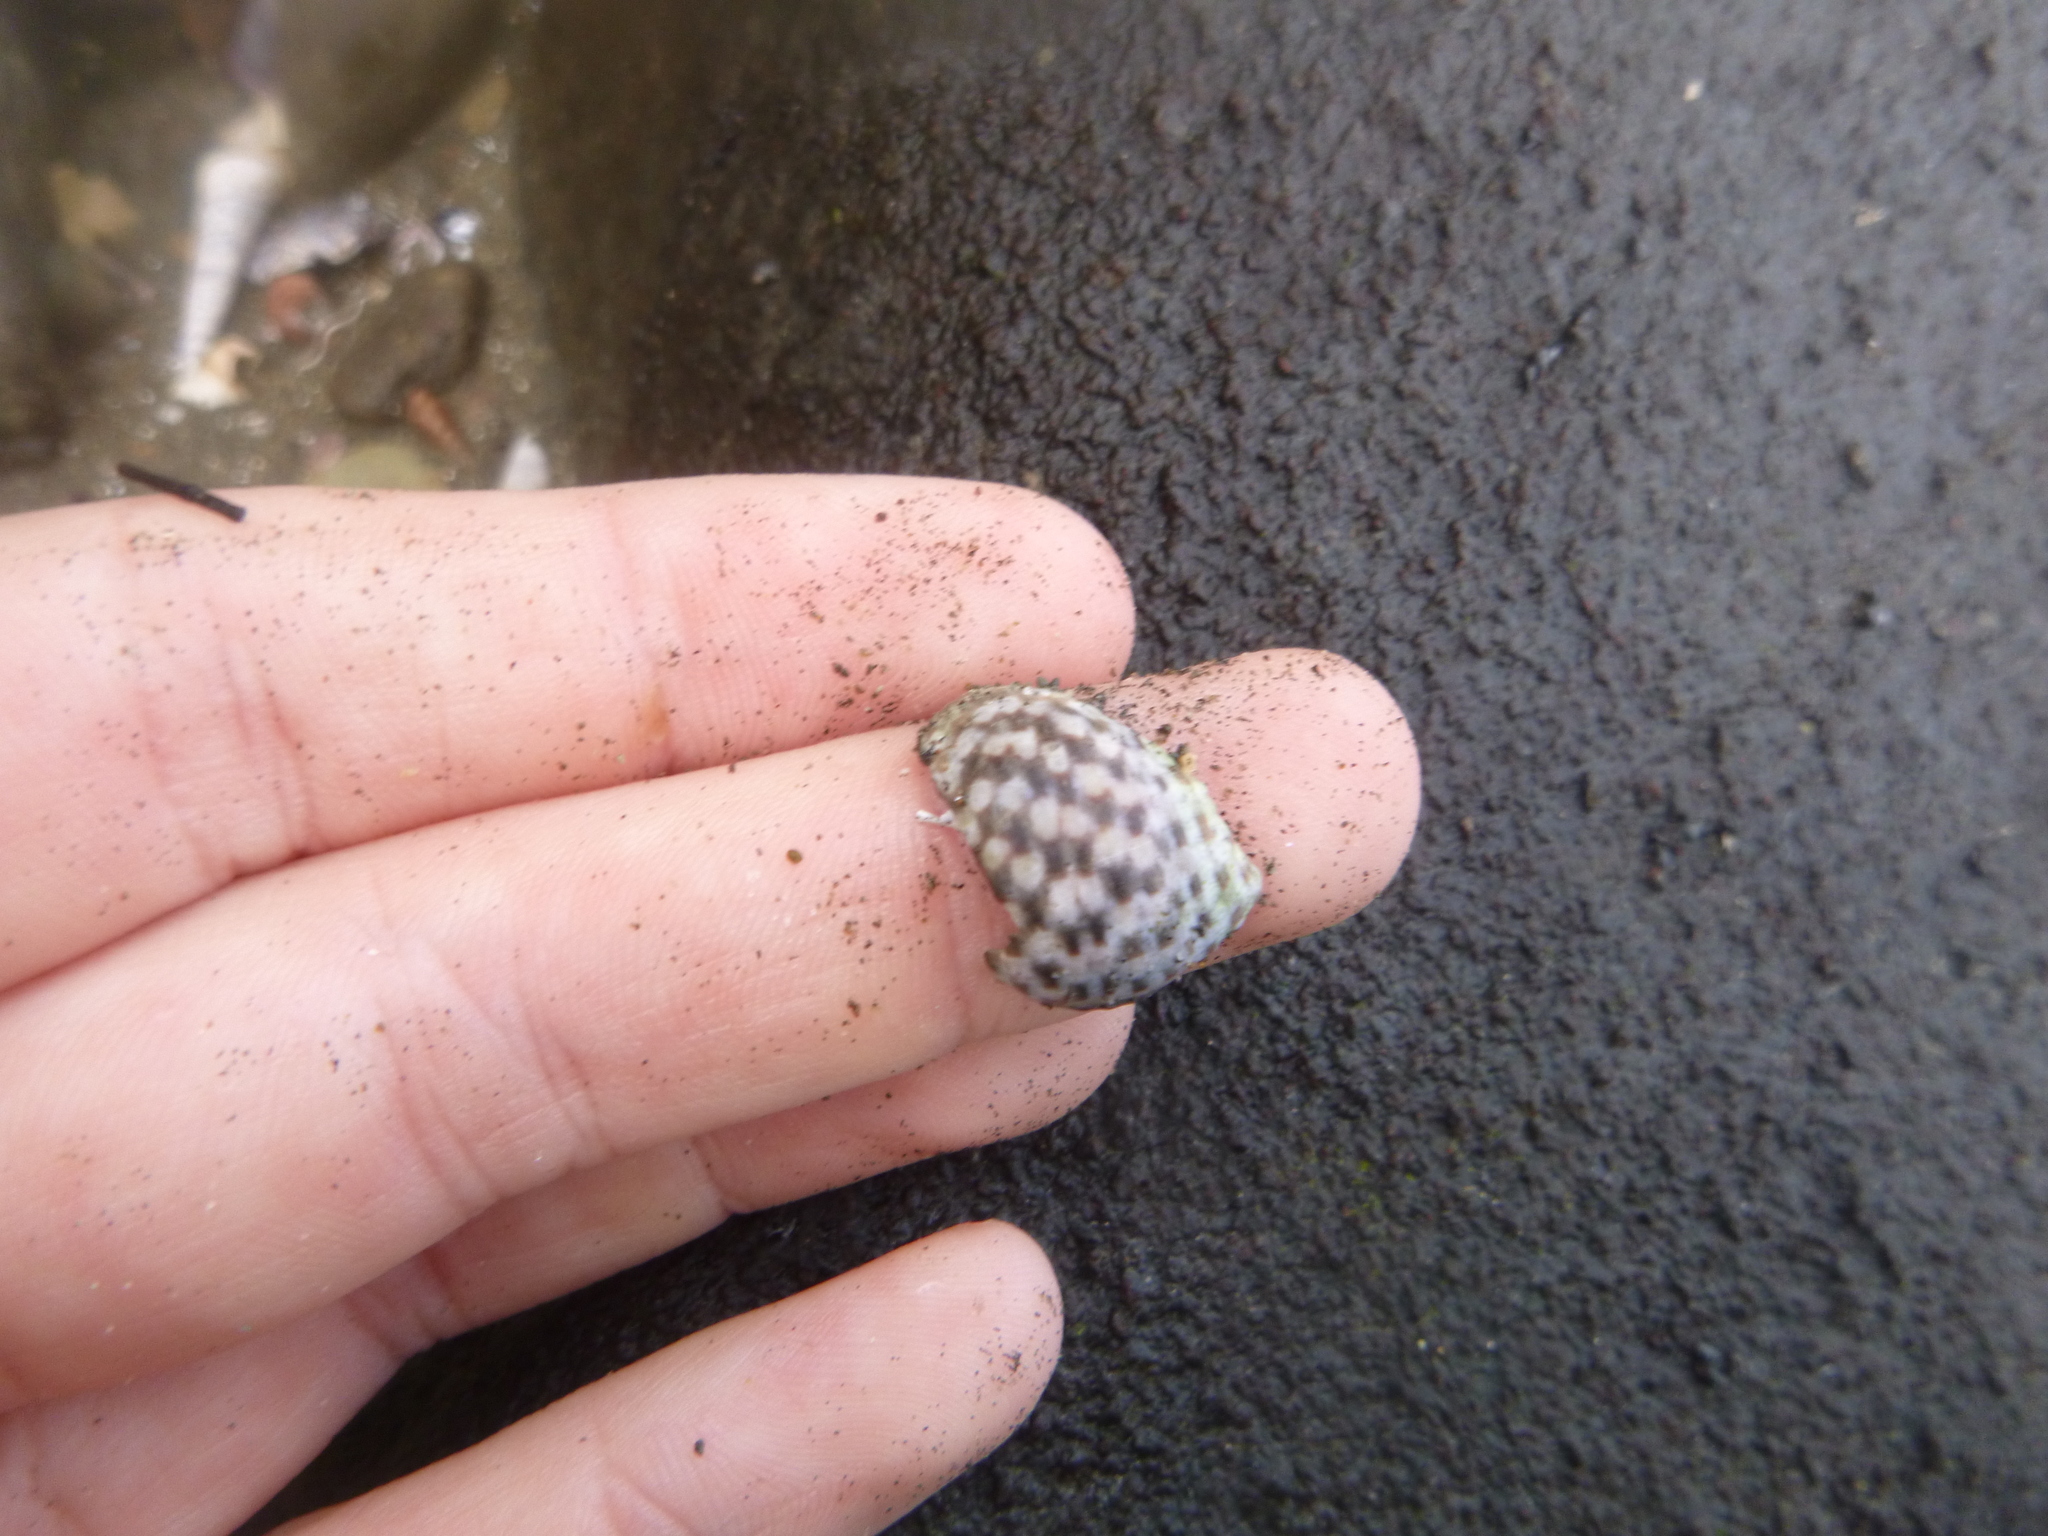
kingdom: Animalia
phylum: Mollusca
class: Gastropoda
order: Neogastropoda
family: Cominellidae
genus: Cominella
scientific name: Cominella maculosa
